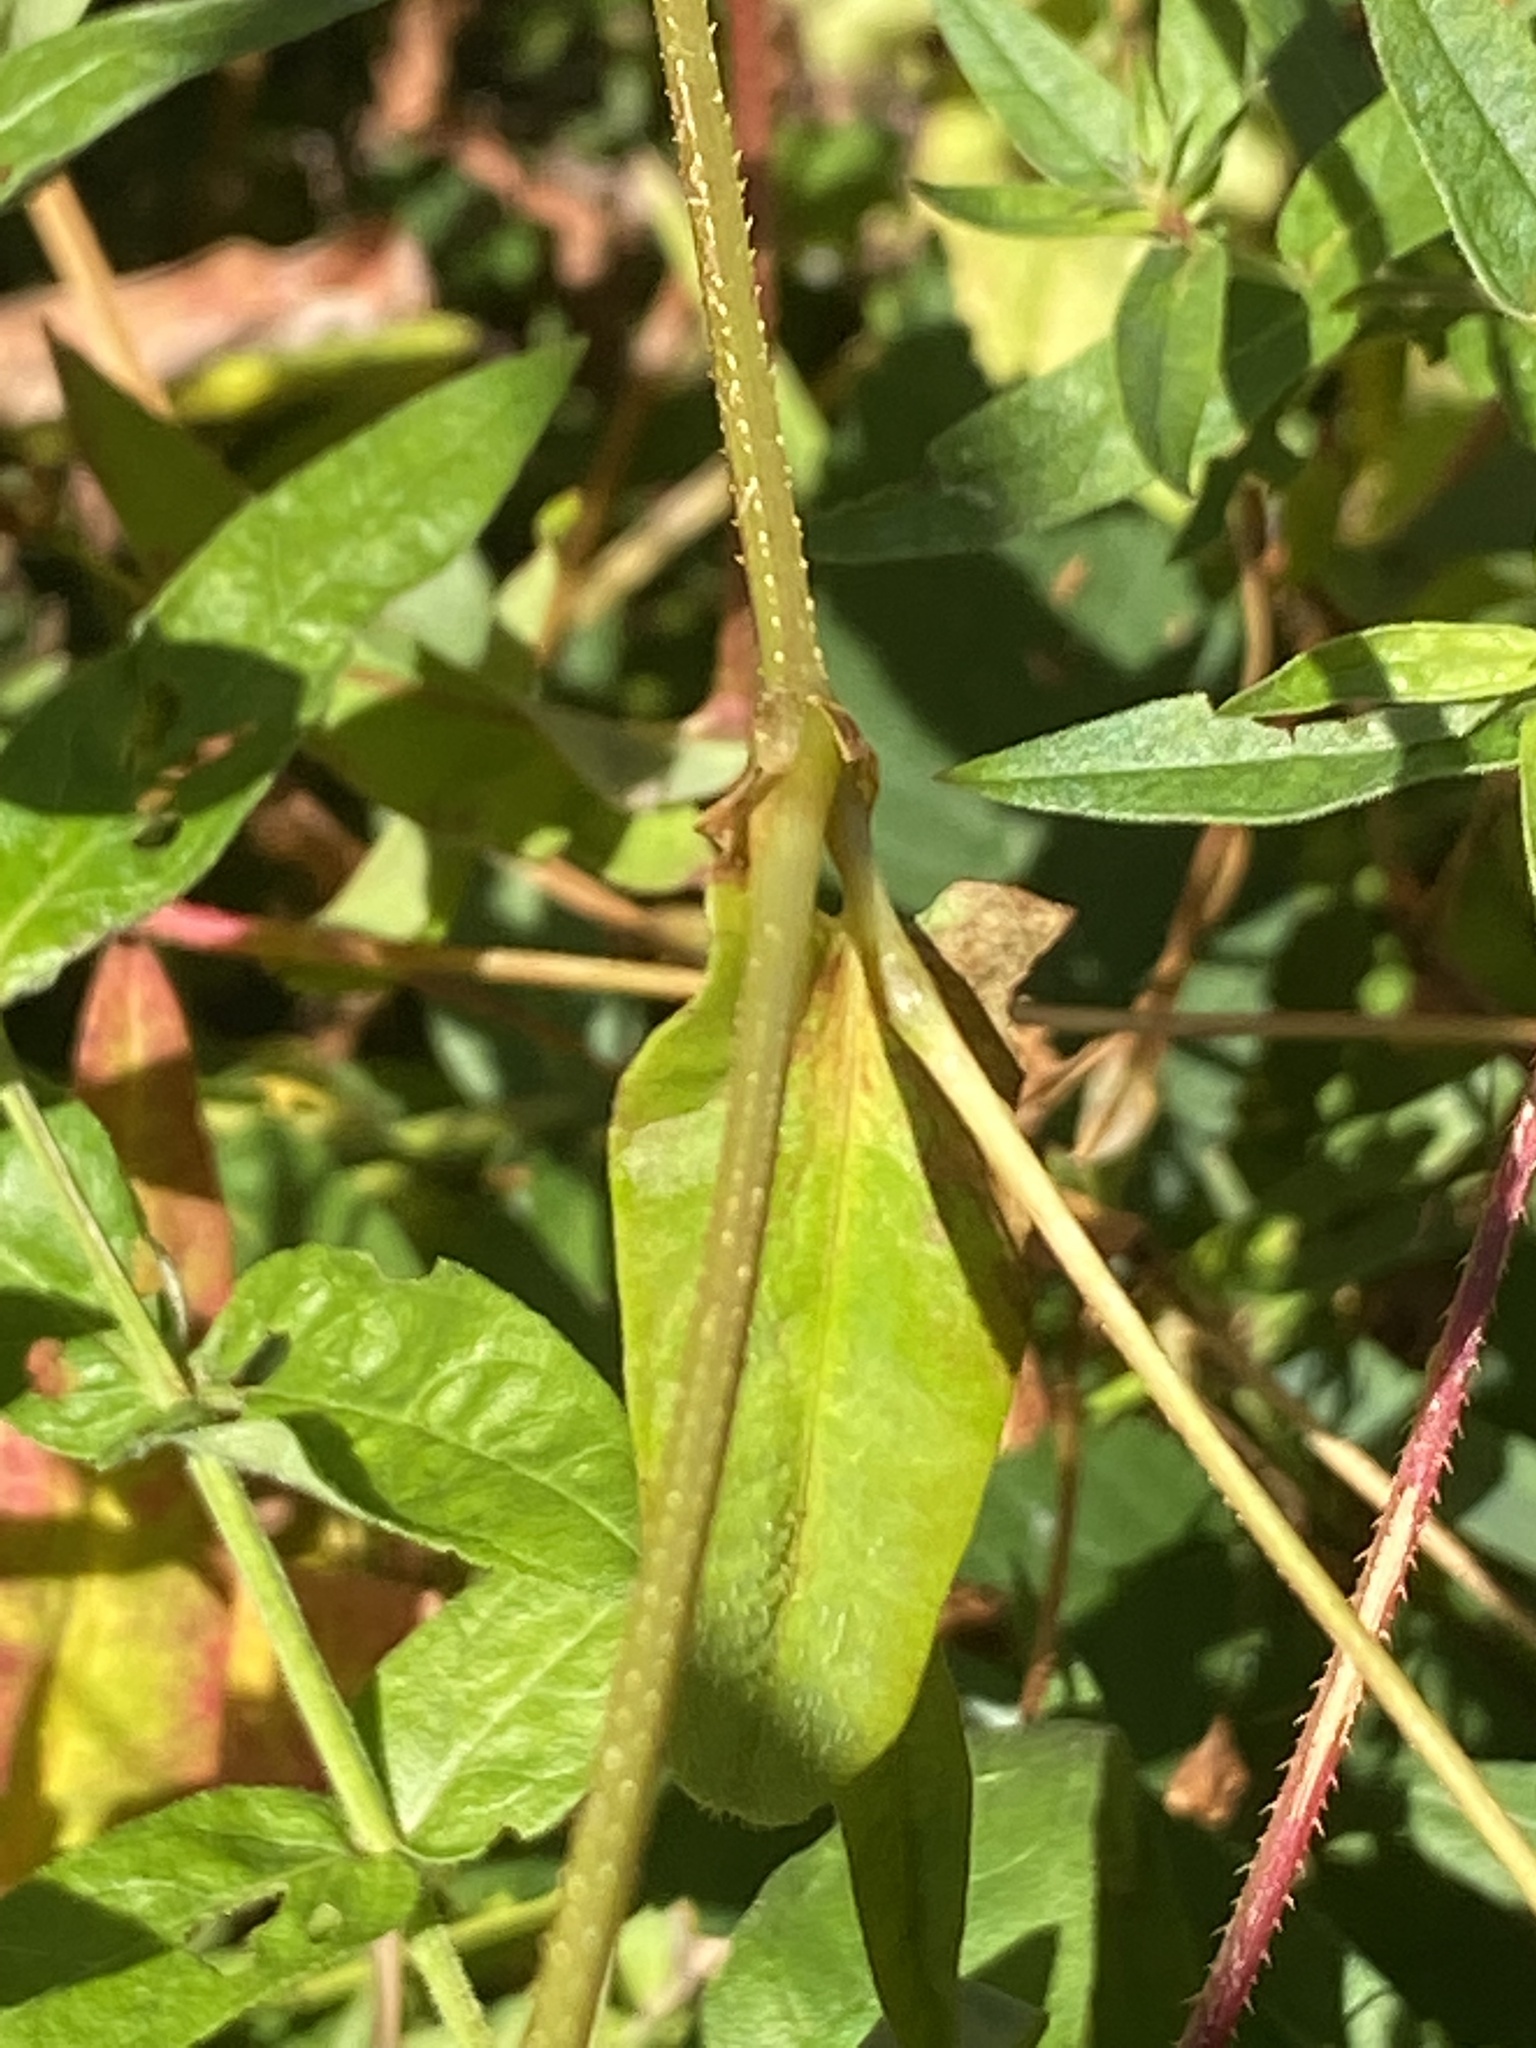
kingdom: Plantae
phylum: Tracheophyta
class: Magnoliopsida
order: Caryophyllales
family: Polygonaceae
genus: Persicaria
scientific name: Persicaria sagittata
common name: American tearthumb
